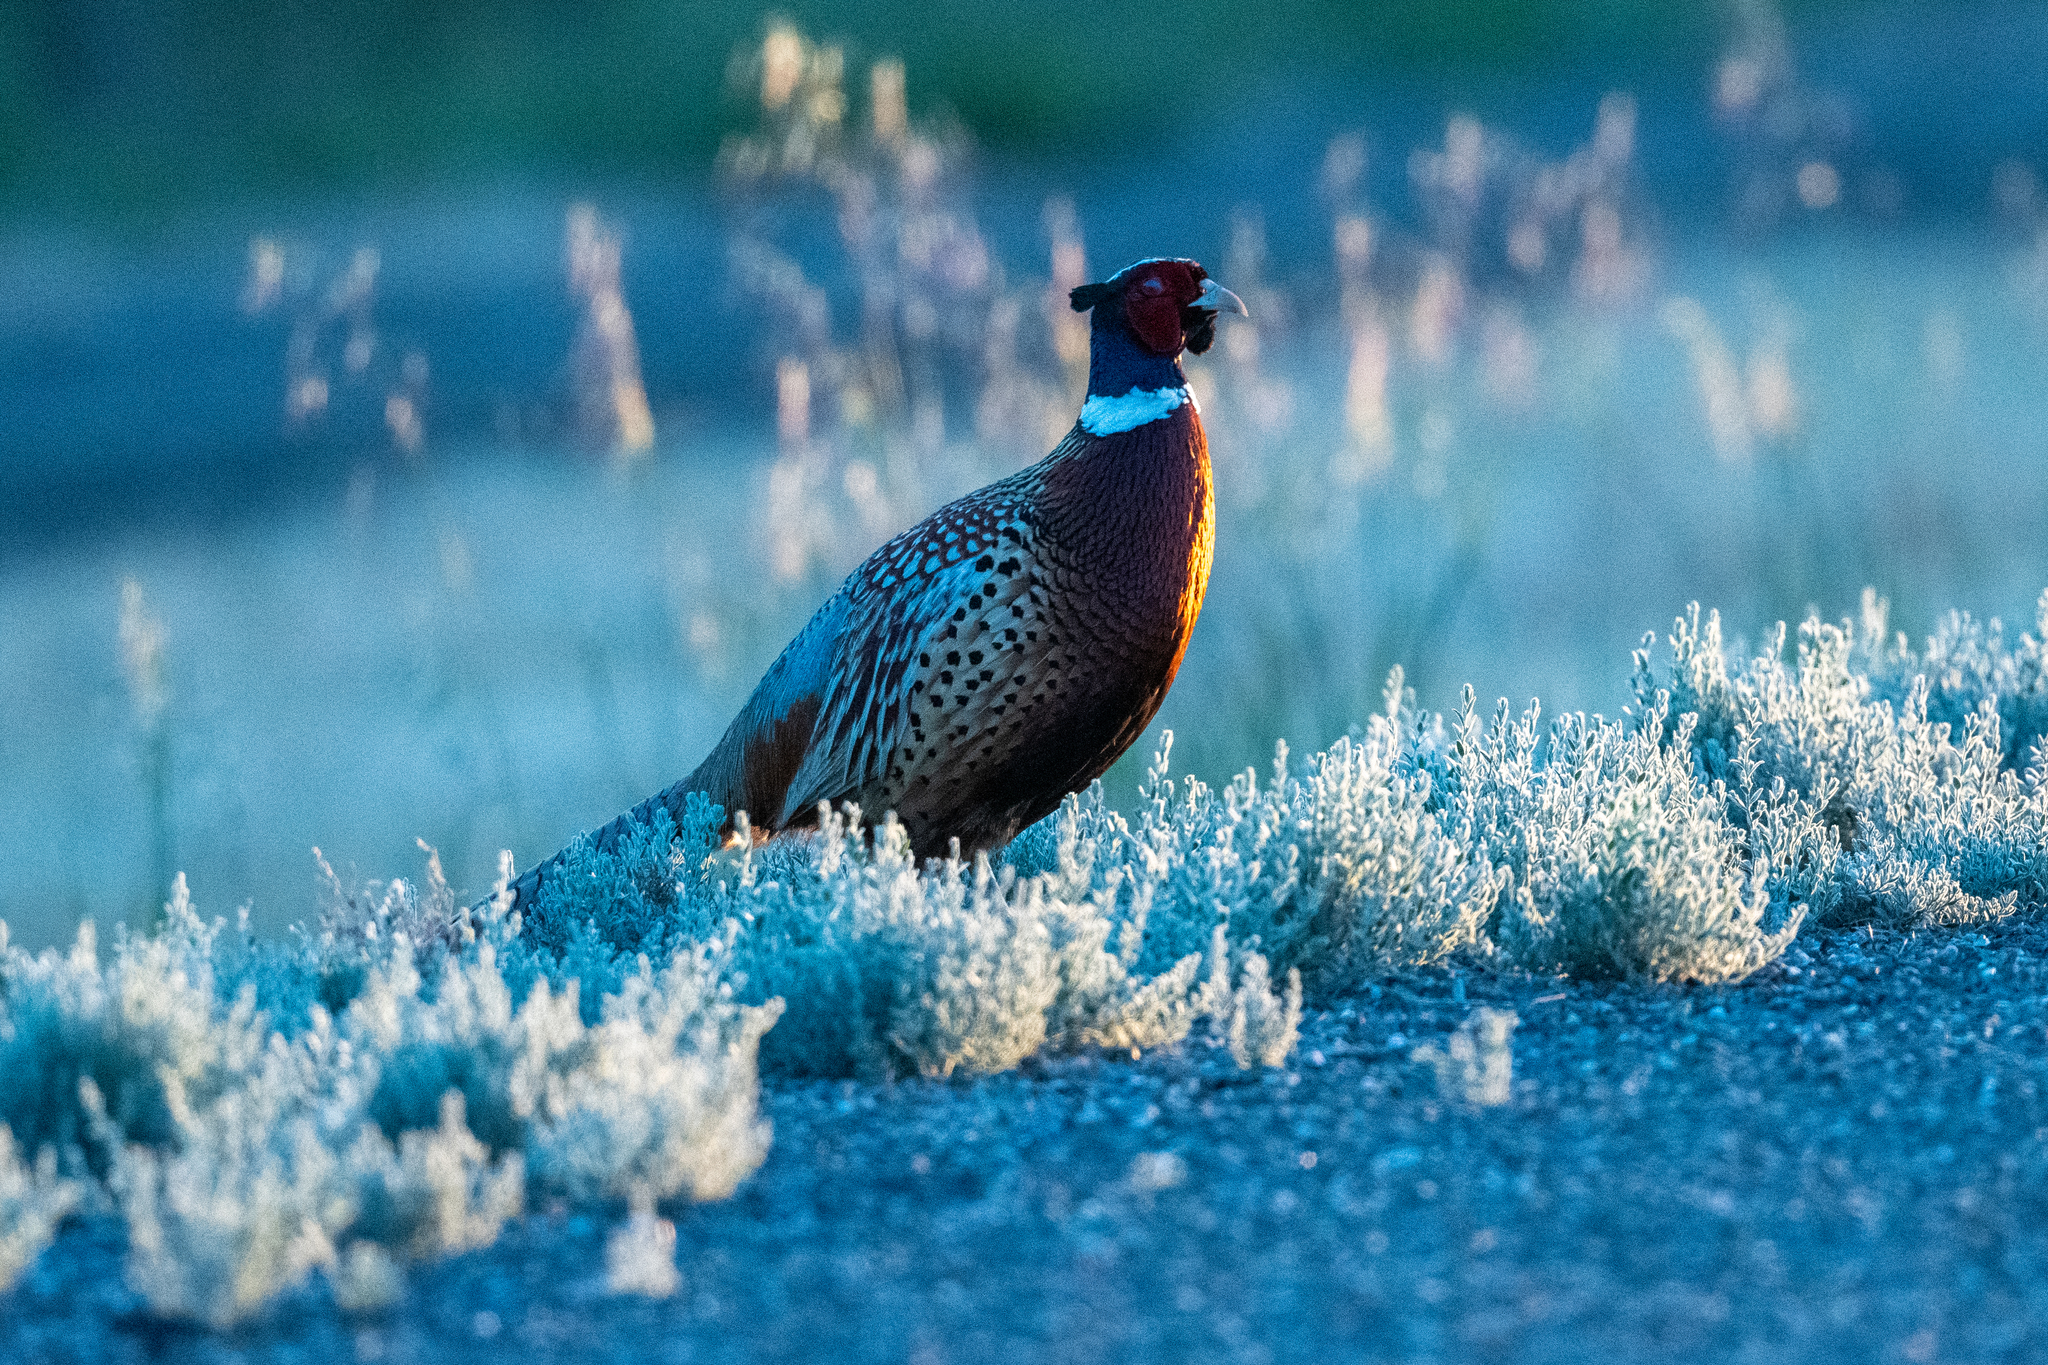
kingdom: Animalia
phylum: Chordata
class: Aves
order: Galliformes
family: Phasianidae
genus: Phasianus
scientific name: Phasianus colchicus
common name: Common pheasant
